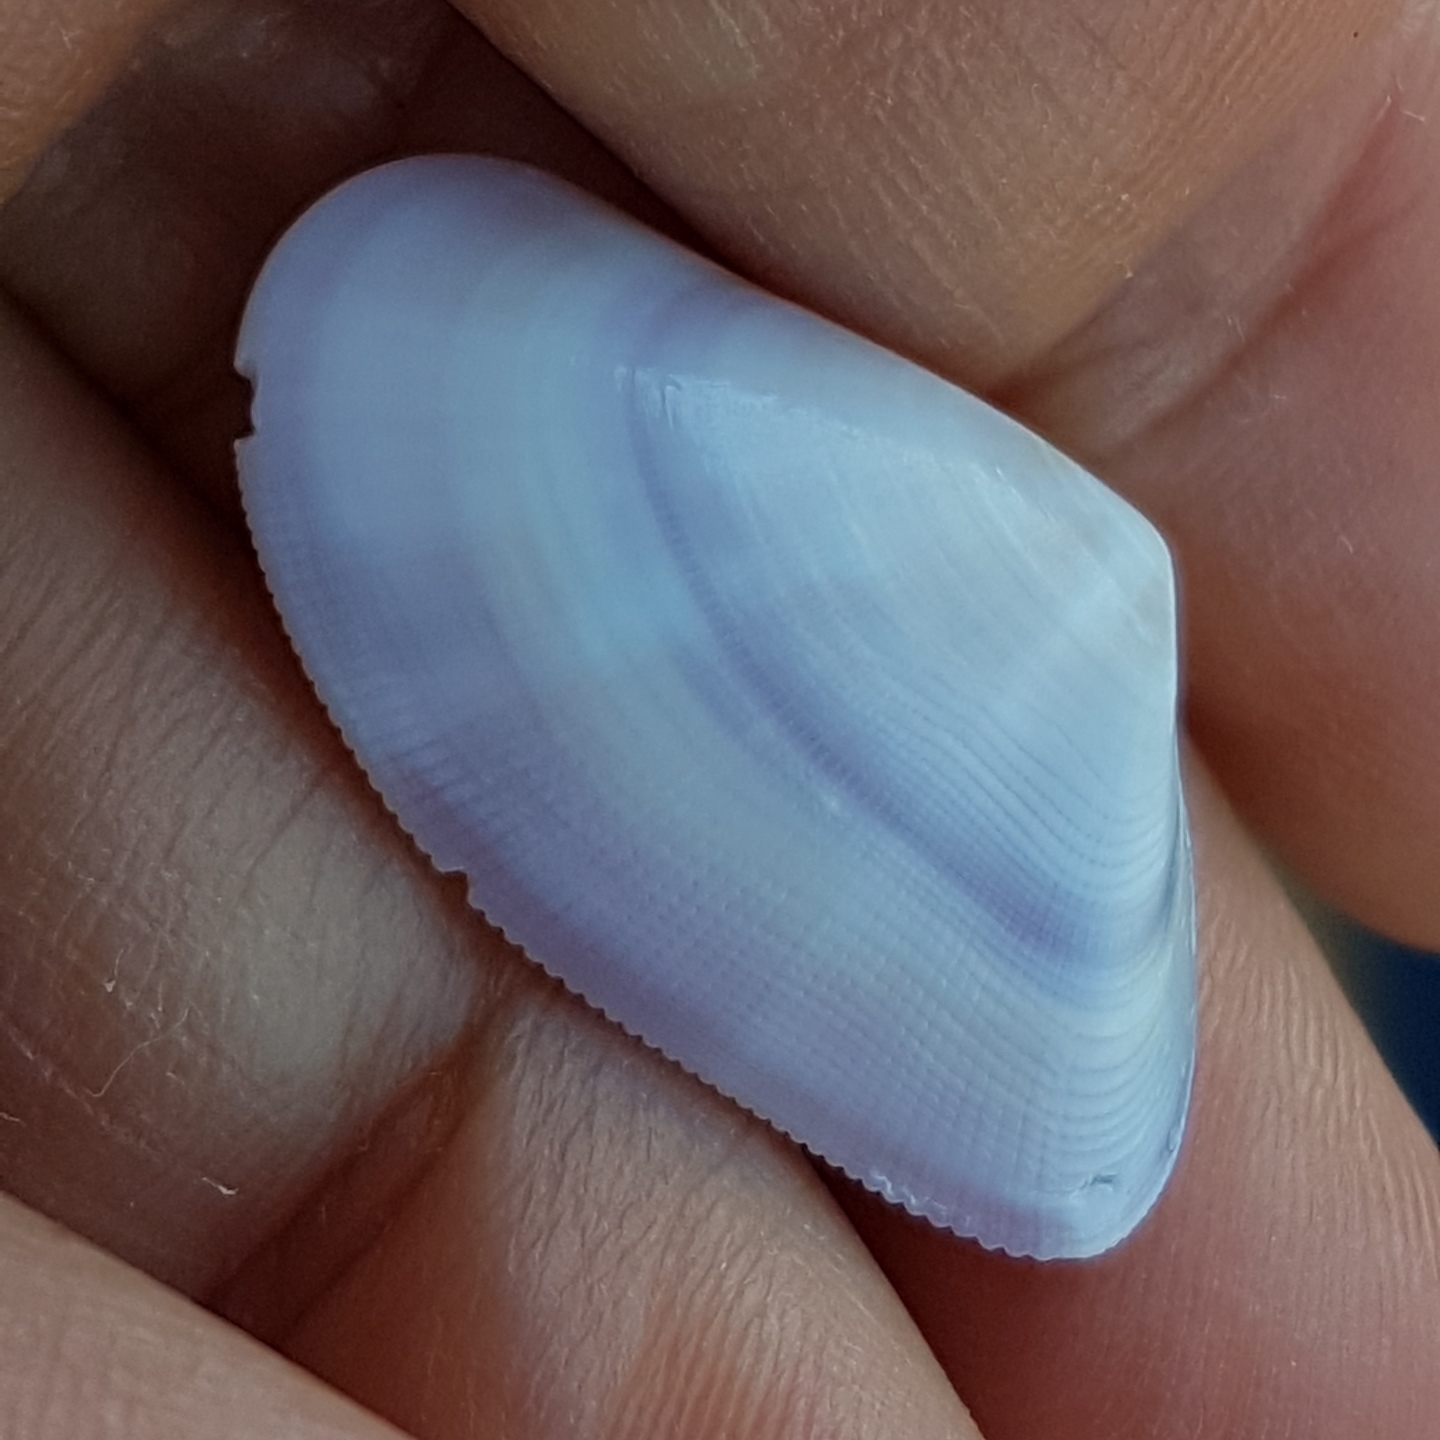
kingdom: Animalia
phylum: Mollusca
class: Bivalvia
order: Cardiida
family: Donacidae
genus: Donax
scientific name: Donax semistriatus
